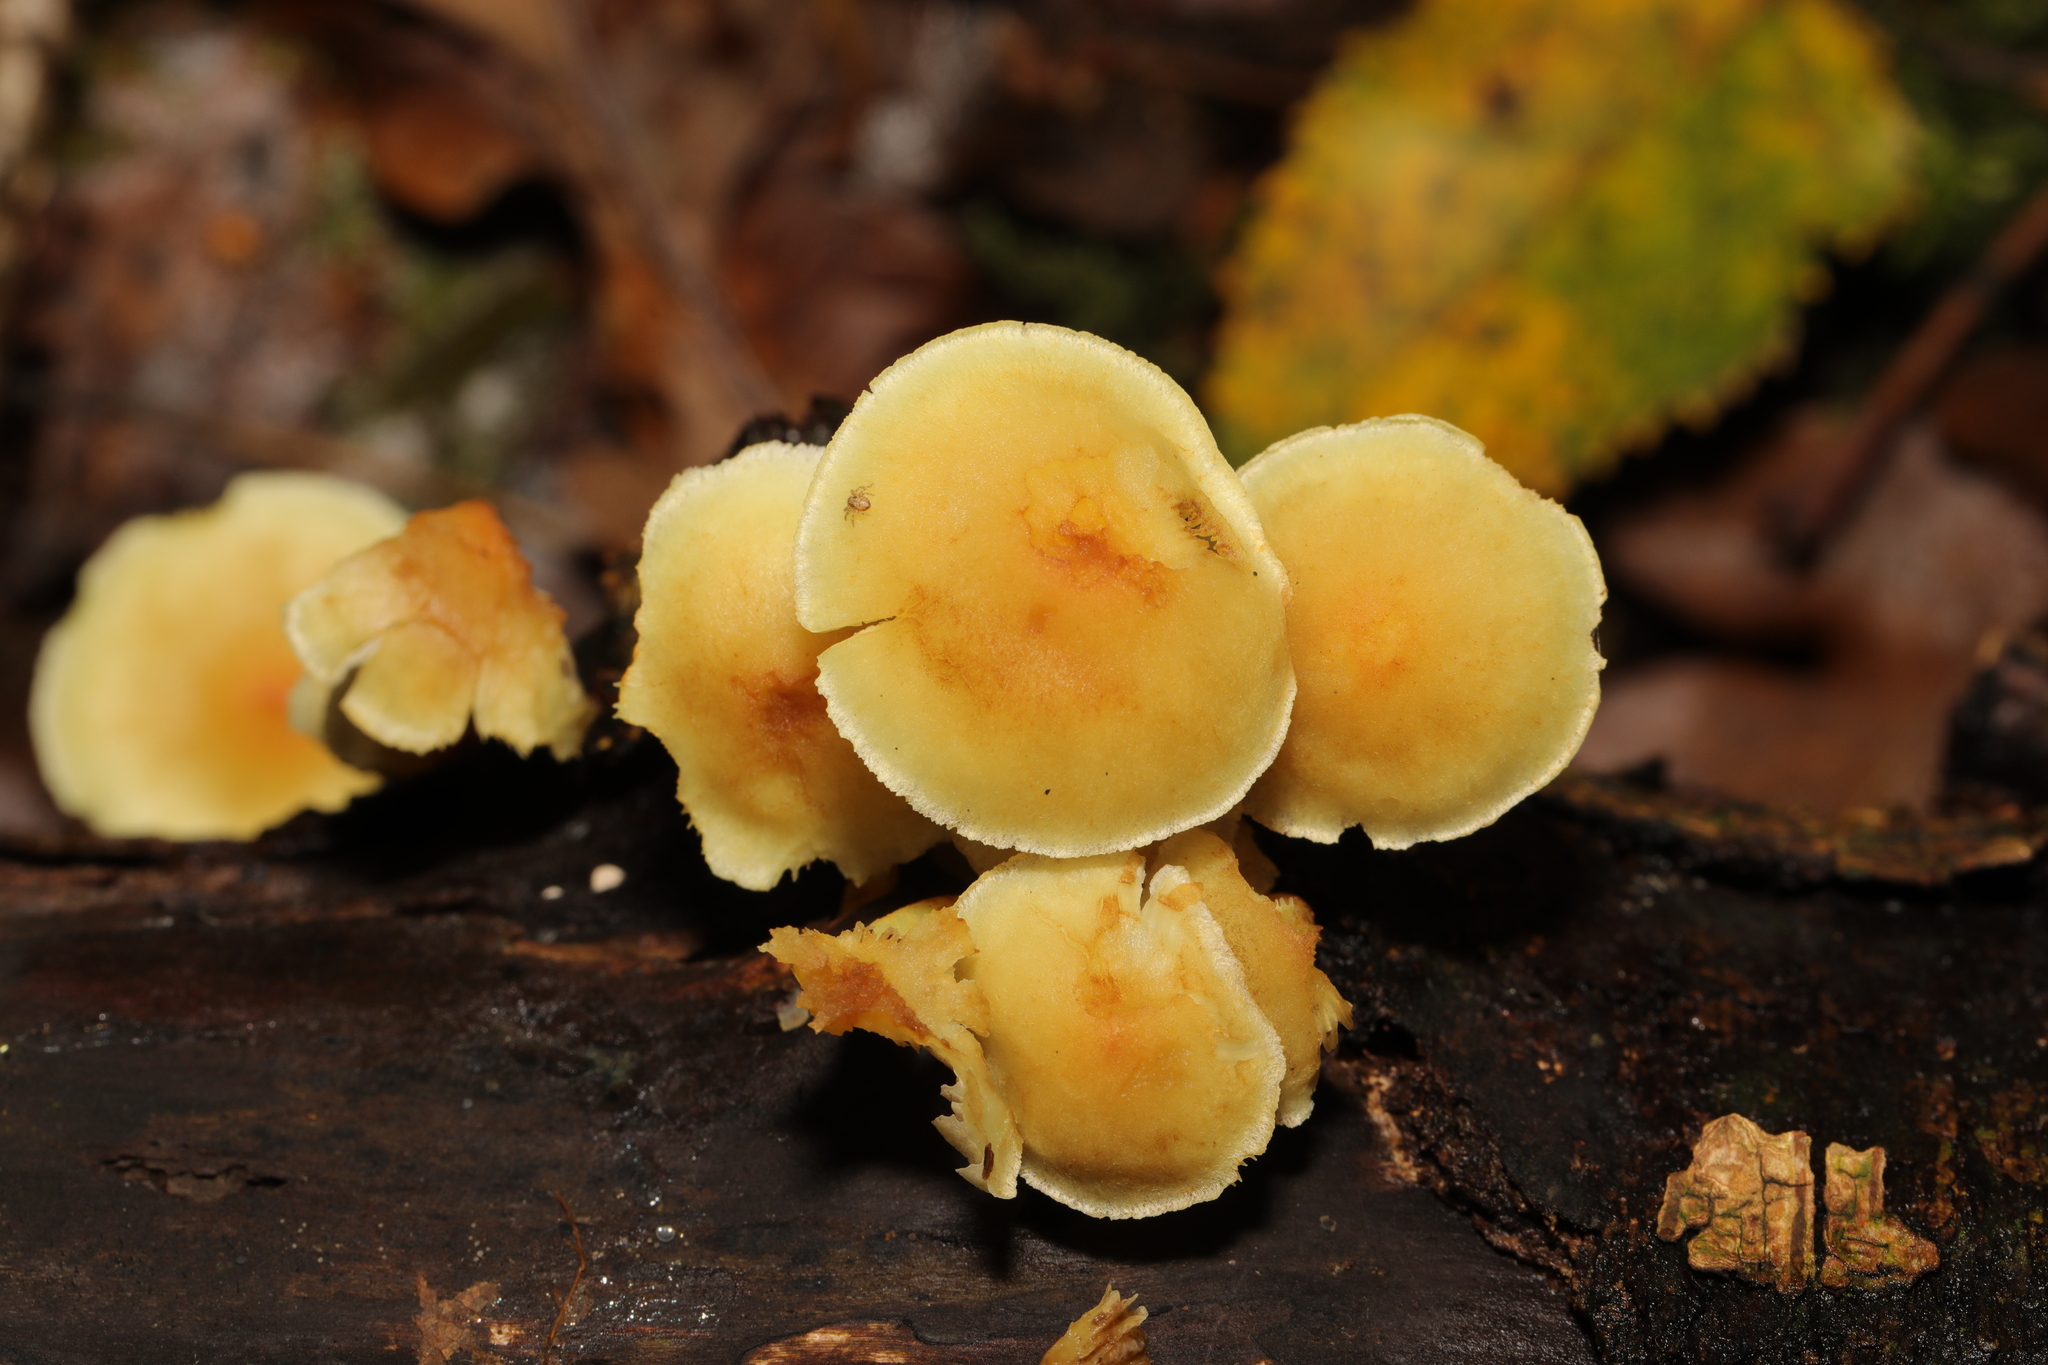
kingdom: Fungi
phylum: Basidiomycota
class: Agaricomycetes
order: Agaricales
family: Strophariaceae
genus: Hypholoma
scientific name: Hypholoma
